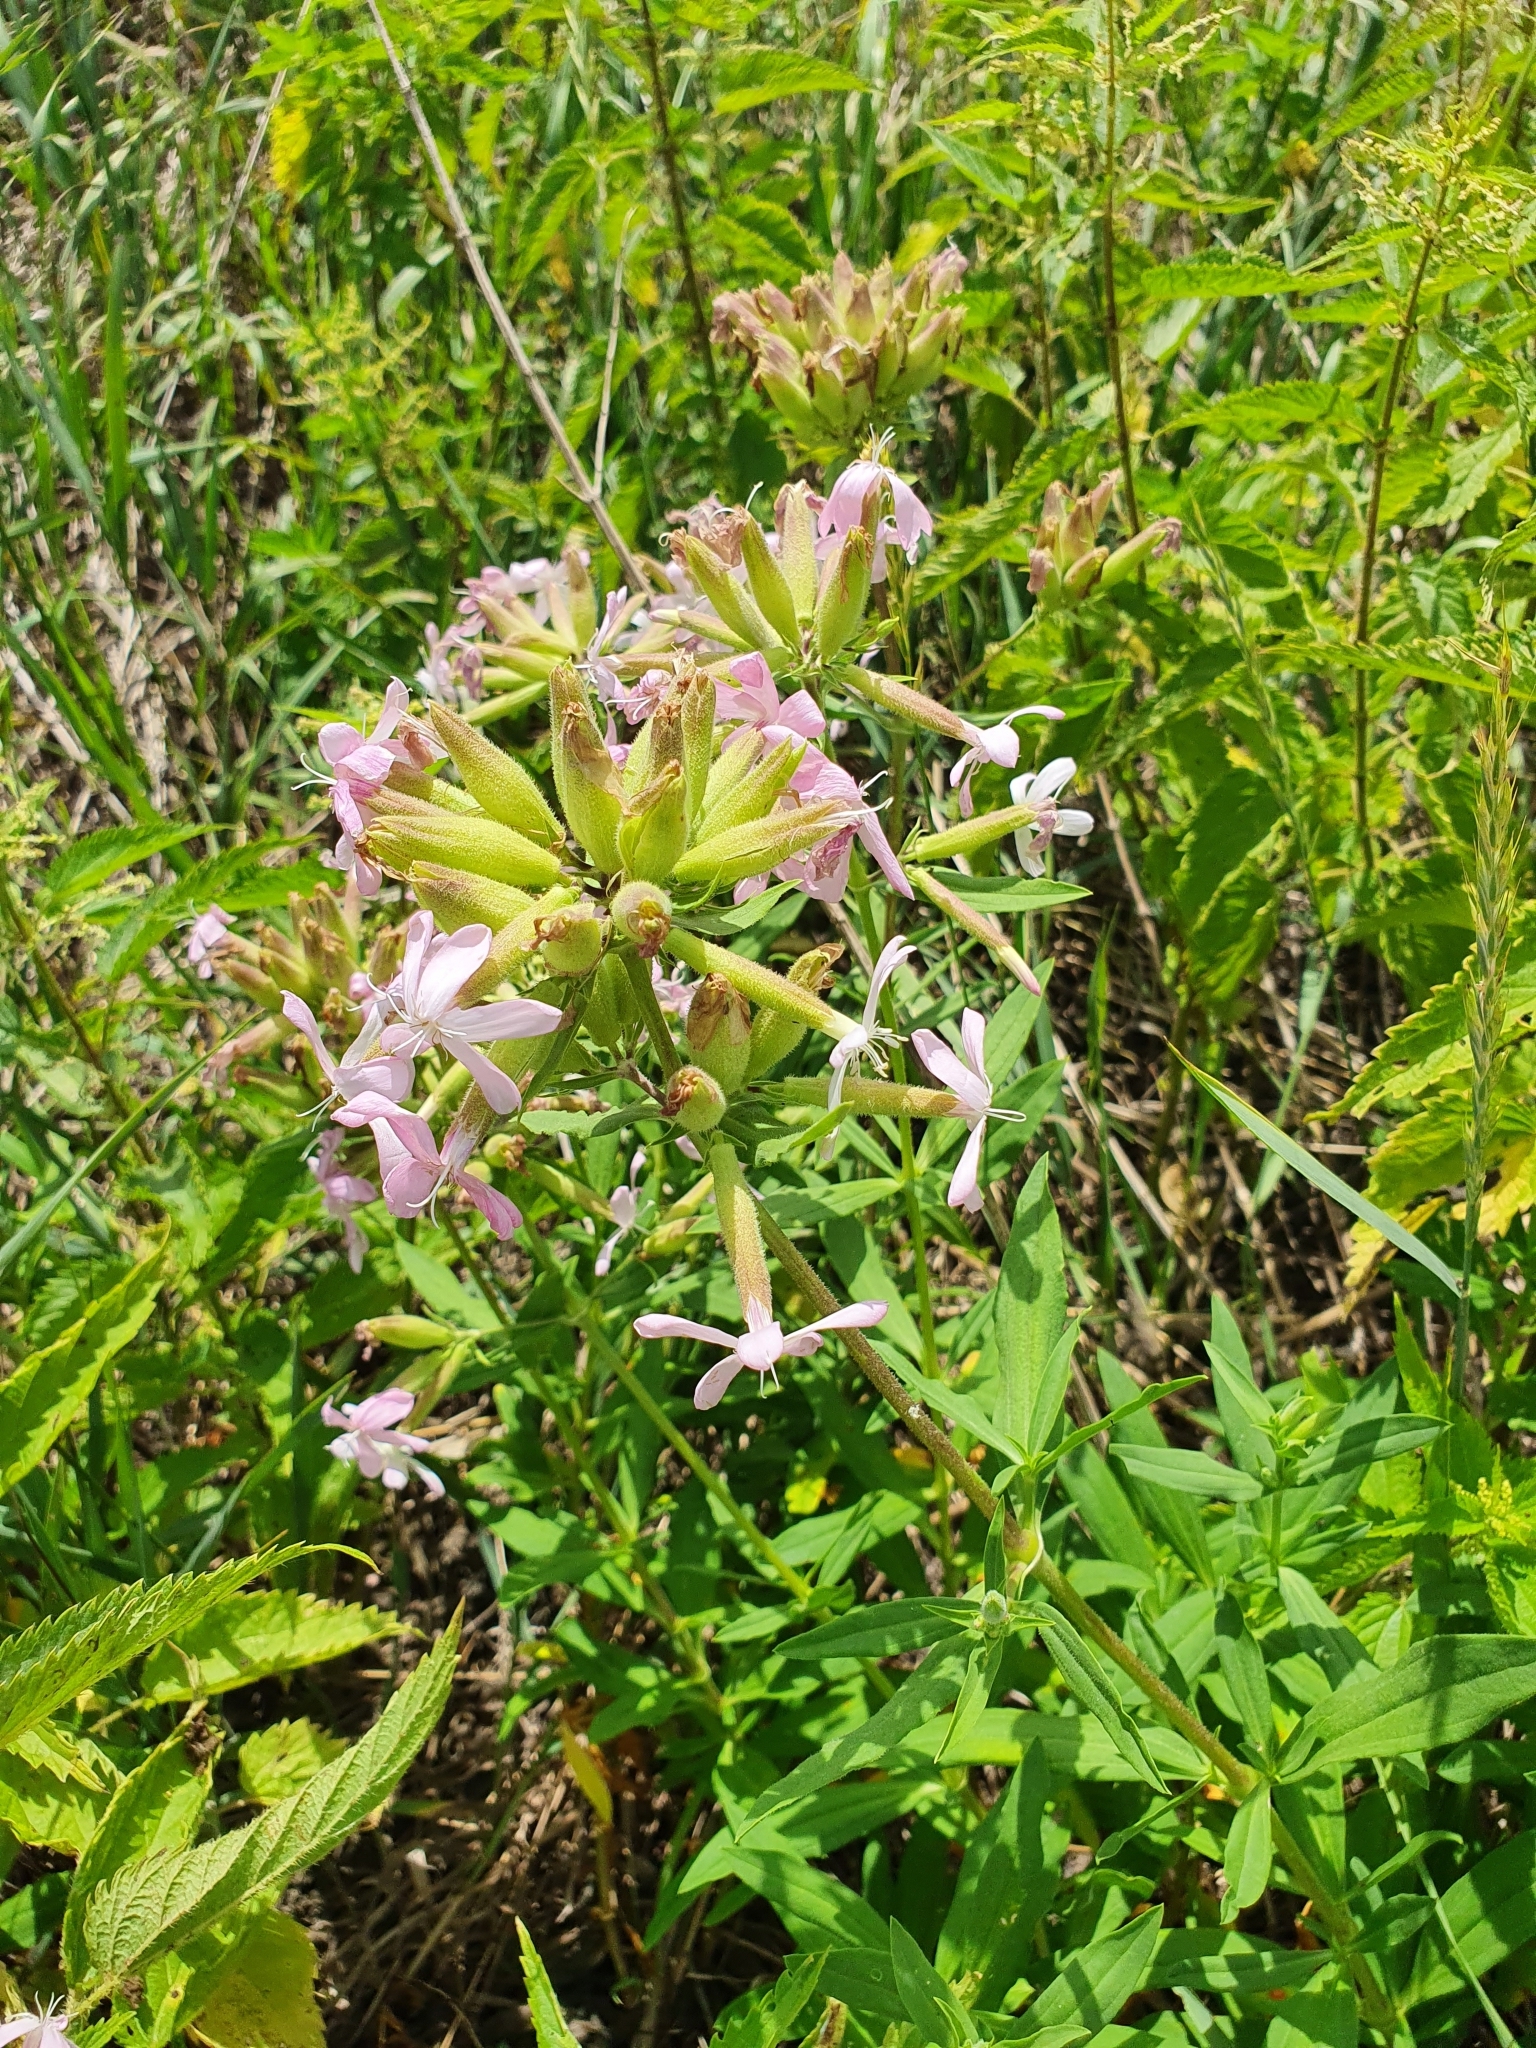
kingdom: Plantae
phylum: Tracheophyta
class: Magnoliopsida
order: Caryophyllales
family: Caryophyllaceae
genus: Saponaria
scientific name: Saponaria officinalis
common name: Soapwort
